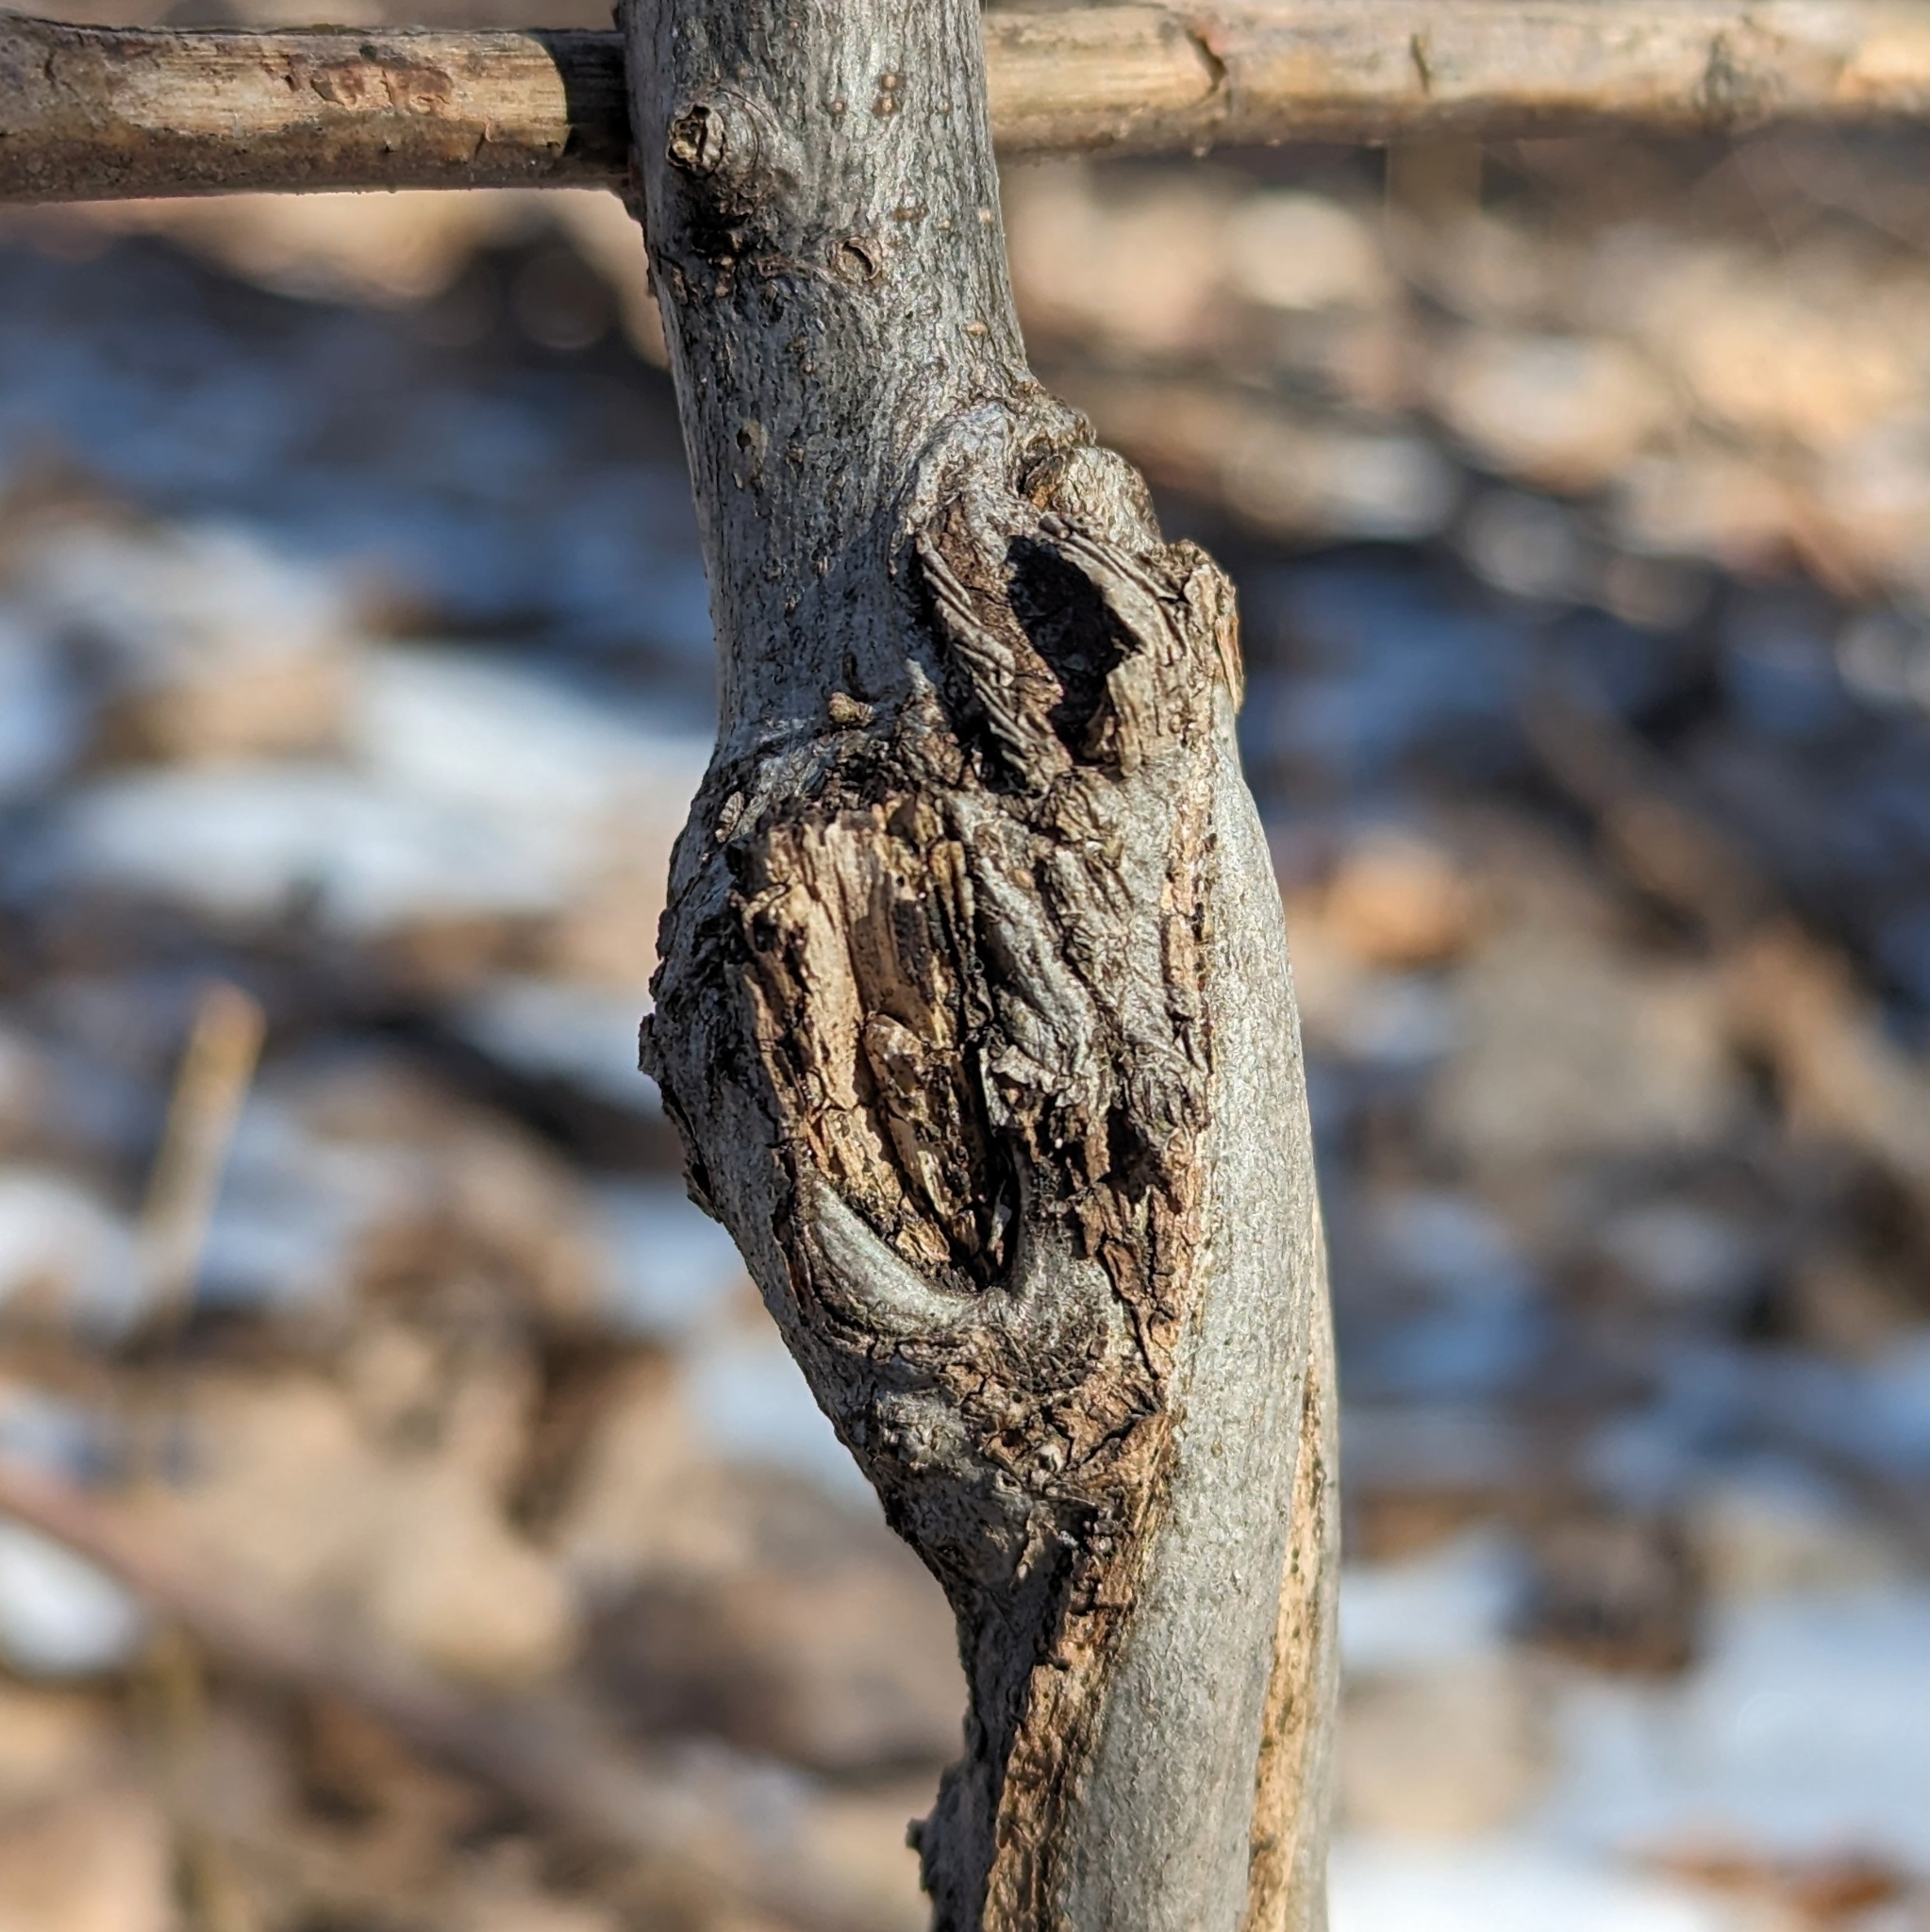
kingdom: Plantae
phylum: Tracheophyta
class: Magnoliopsida
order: Fagales
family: Juglandaceae
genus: Carya
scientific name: Carya cordiformis
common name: Bitternut hickory
